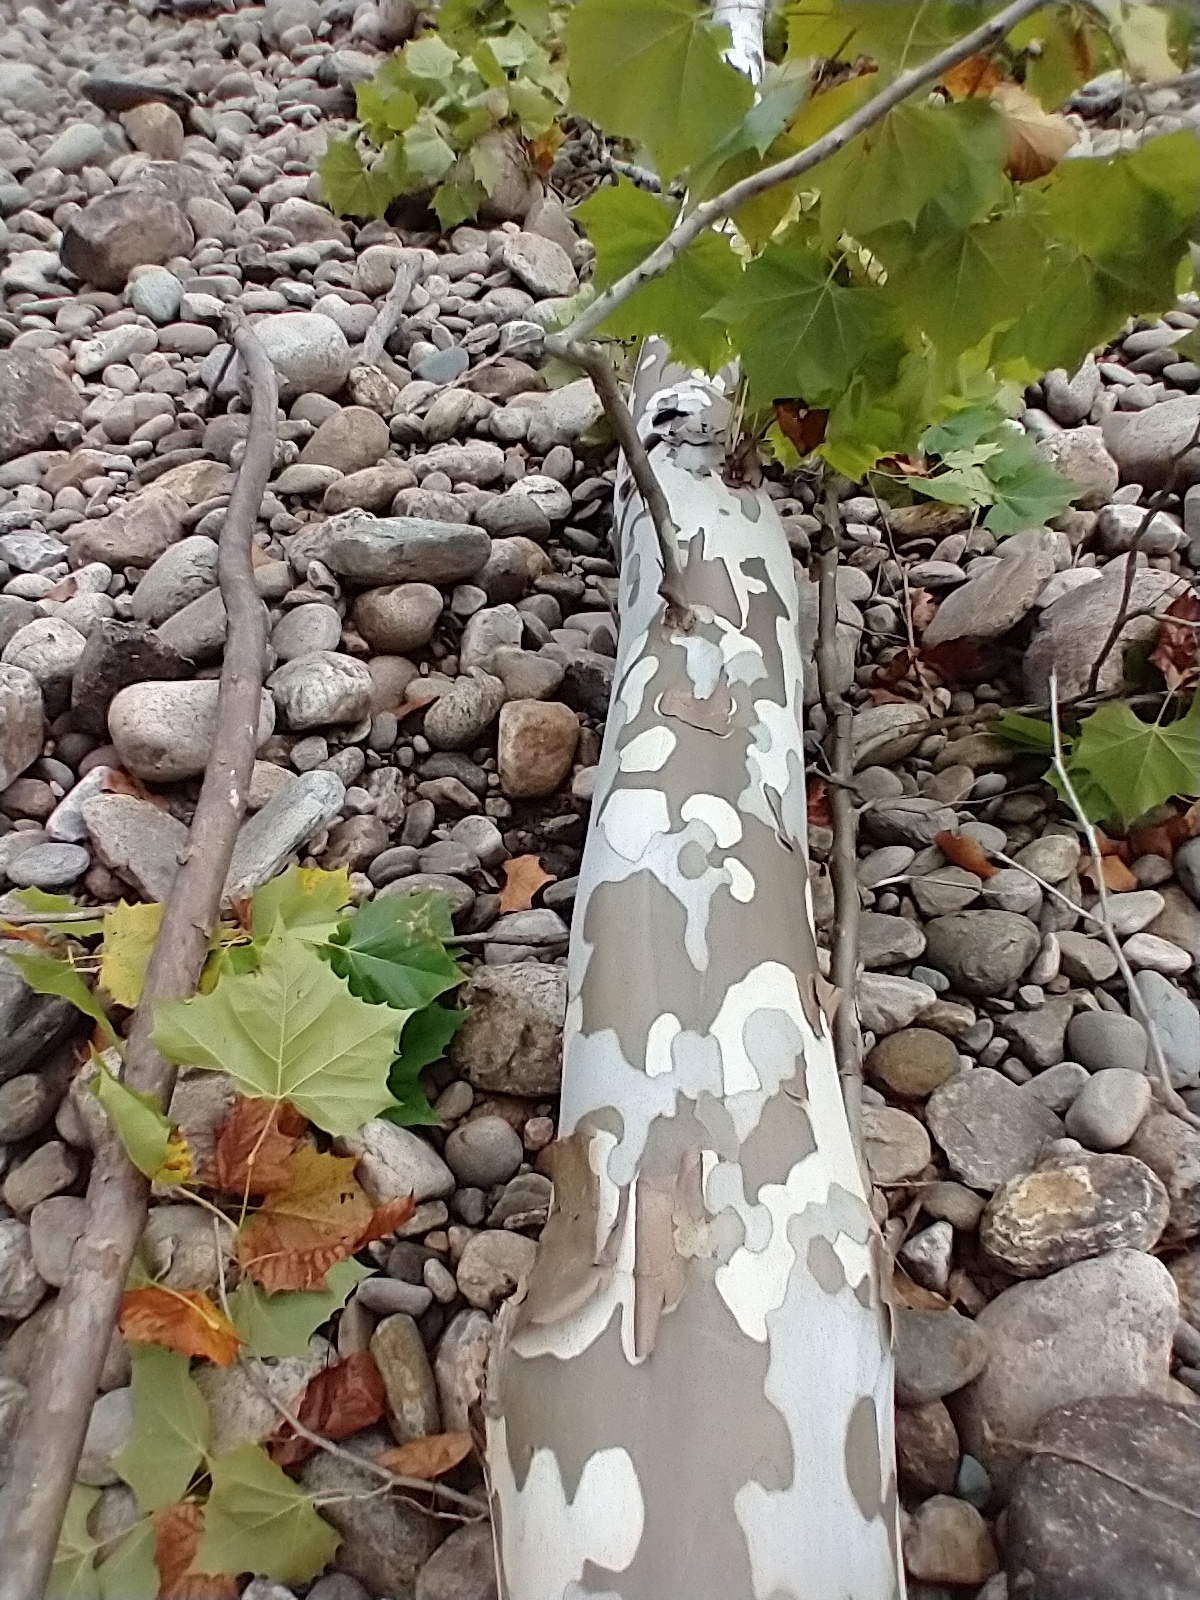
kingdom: Plantae
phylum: Tracheophyta
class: Magnoliopsida
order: Proteales
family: Platanaceae
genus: Platanus
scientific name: Platanus occidentalis
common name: American sycamore
